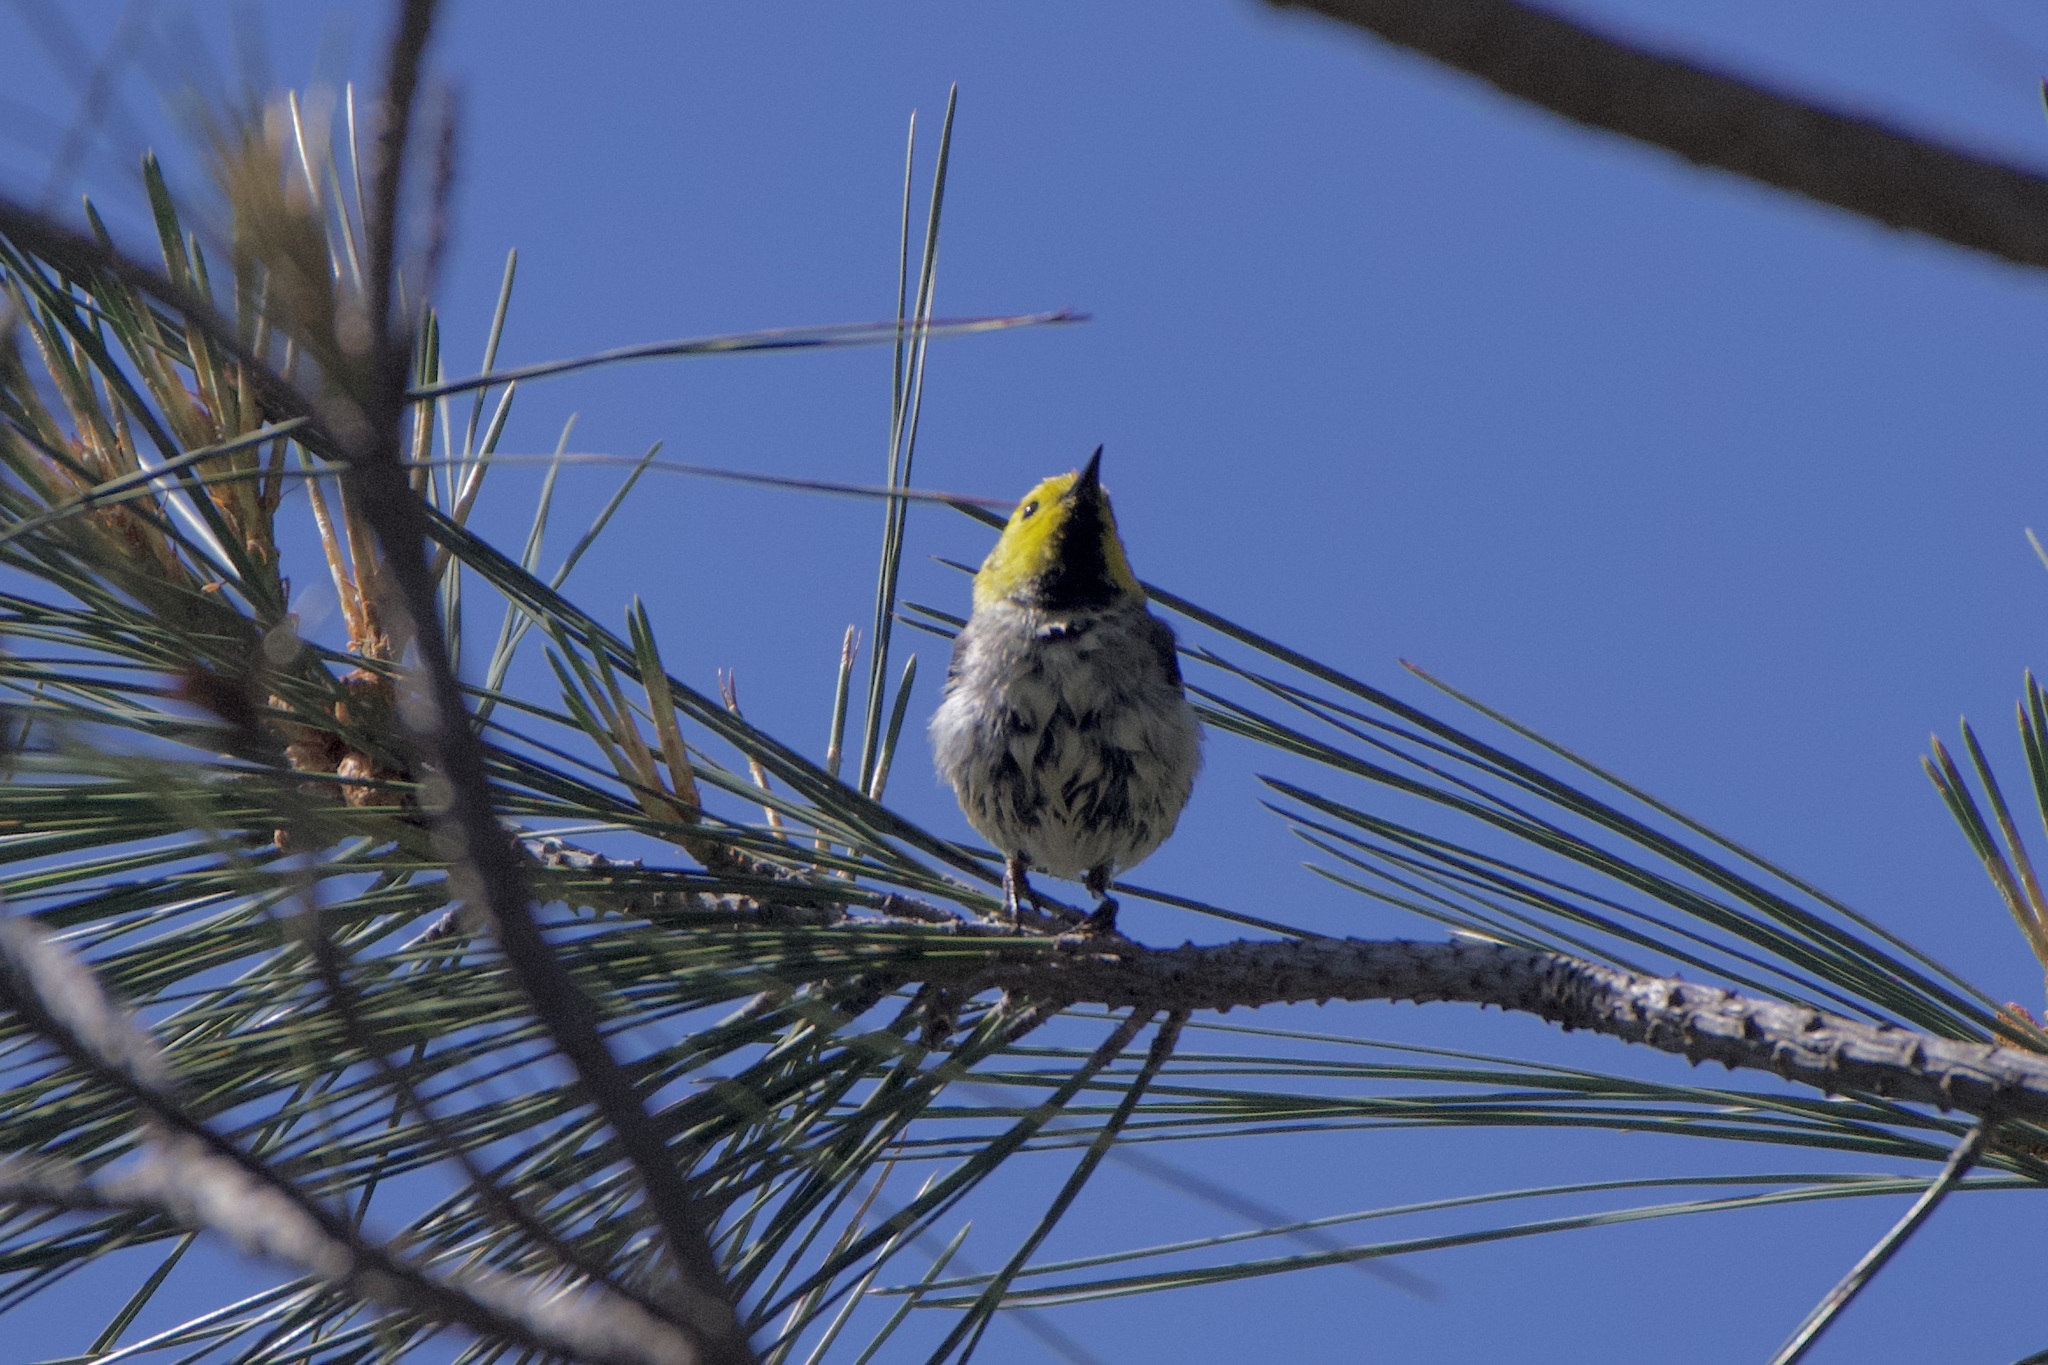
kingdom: Animalia
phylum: Chordata
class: Aves
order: Passeriformes
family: Parulidae
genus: Setophaga
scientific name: Setophaga occidentalis
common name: Hermit warbler
